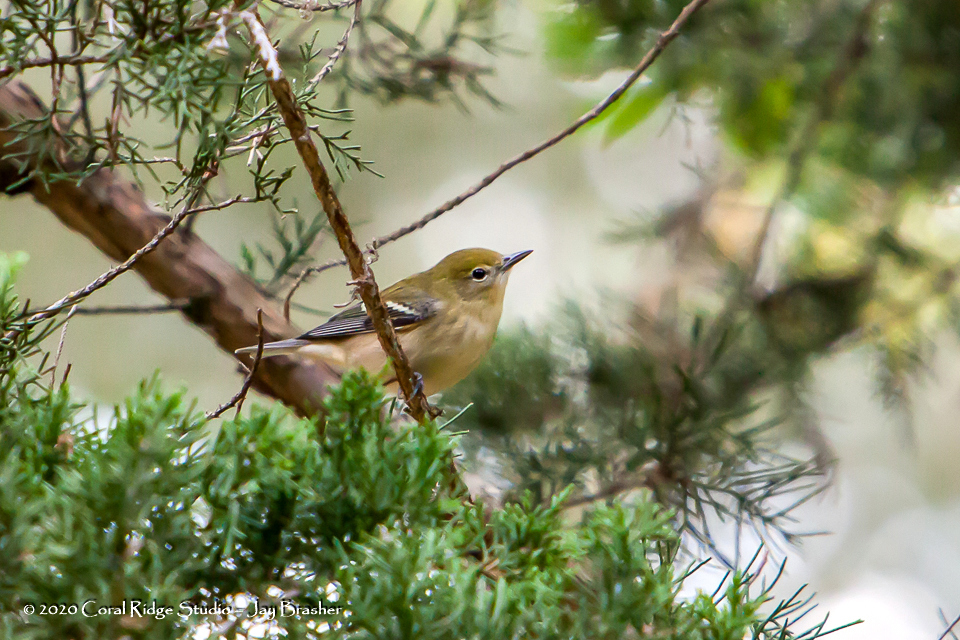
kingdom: Animalia
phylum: Chordata
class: Aves
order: Passeriformes
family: Parulidae
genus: Setophaga
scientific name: Setophaga castanea
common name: Bay-breasted warbler
